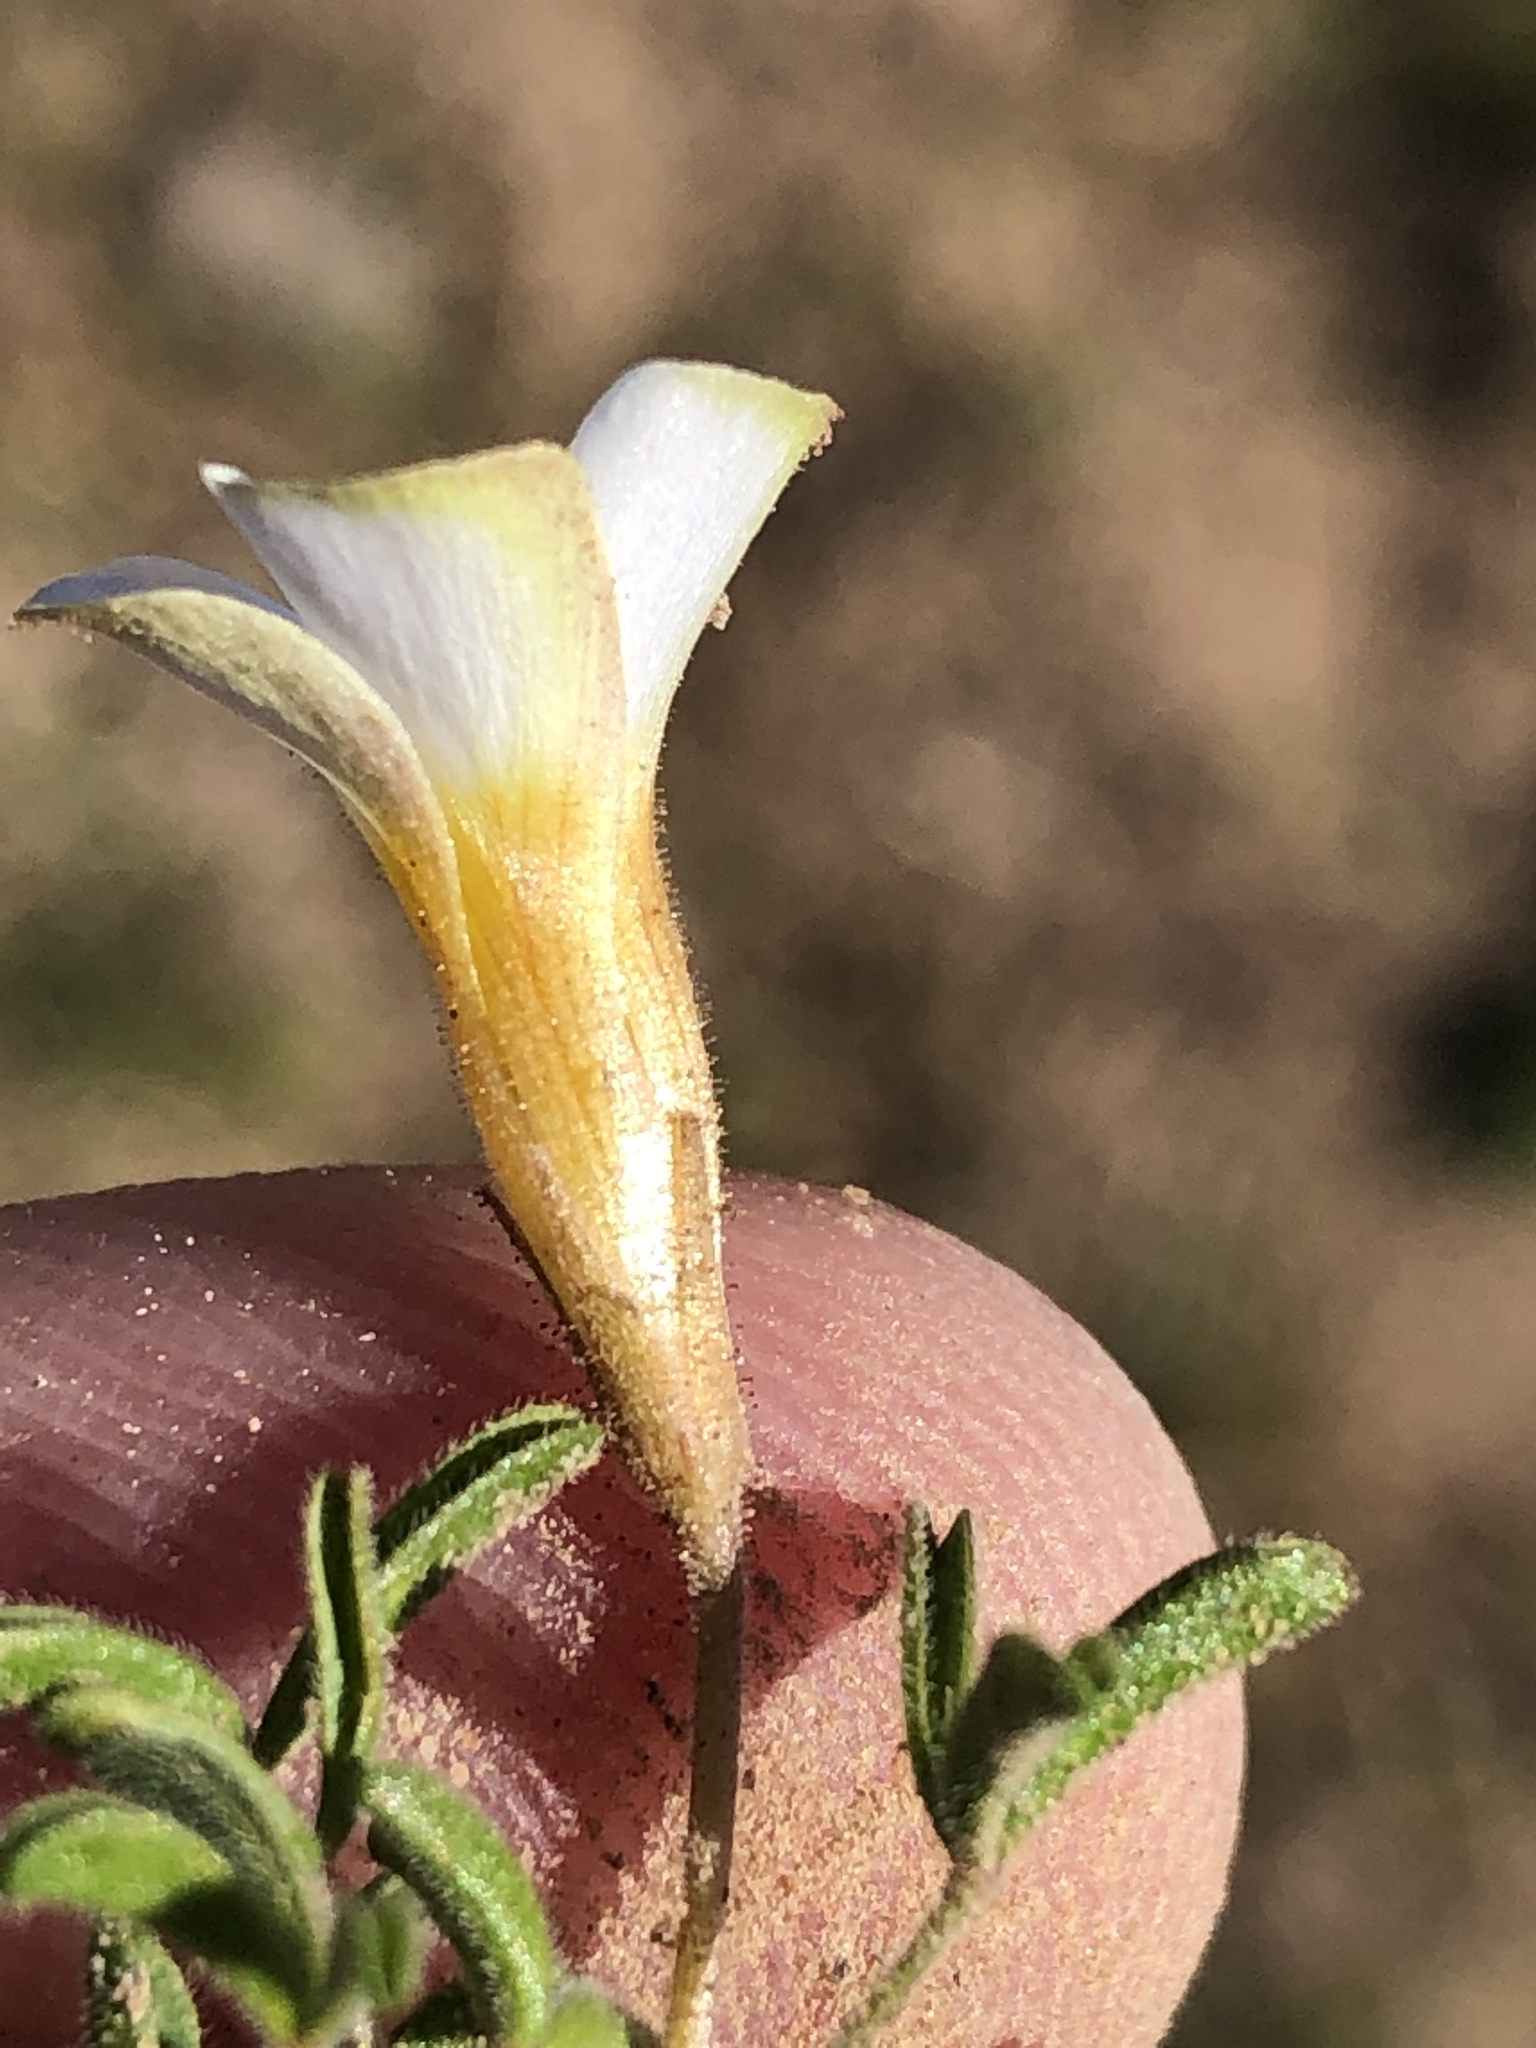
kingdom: Plantae
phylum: Tracheophyta
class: Magnoliopsida
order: Oxalidales
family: Oxalidaceae
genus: Oxalis
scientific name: Oxalis ciliaris
